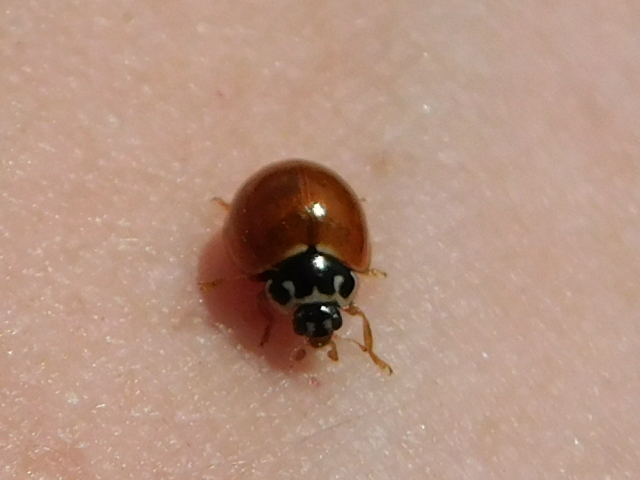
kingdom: Animalia
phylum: Arthropoda
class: Insecta
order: Coleoptera
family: Coccinellidae
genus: Cycloneda
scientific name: Cycloneda munda
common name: Polished lady beetle
